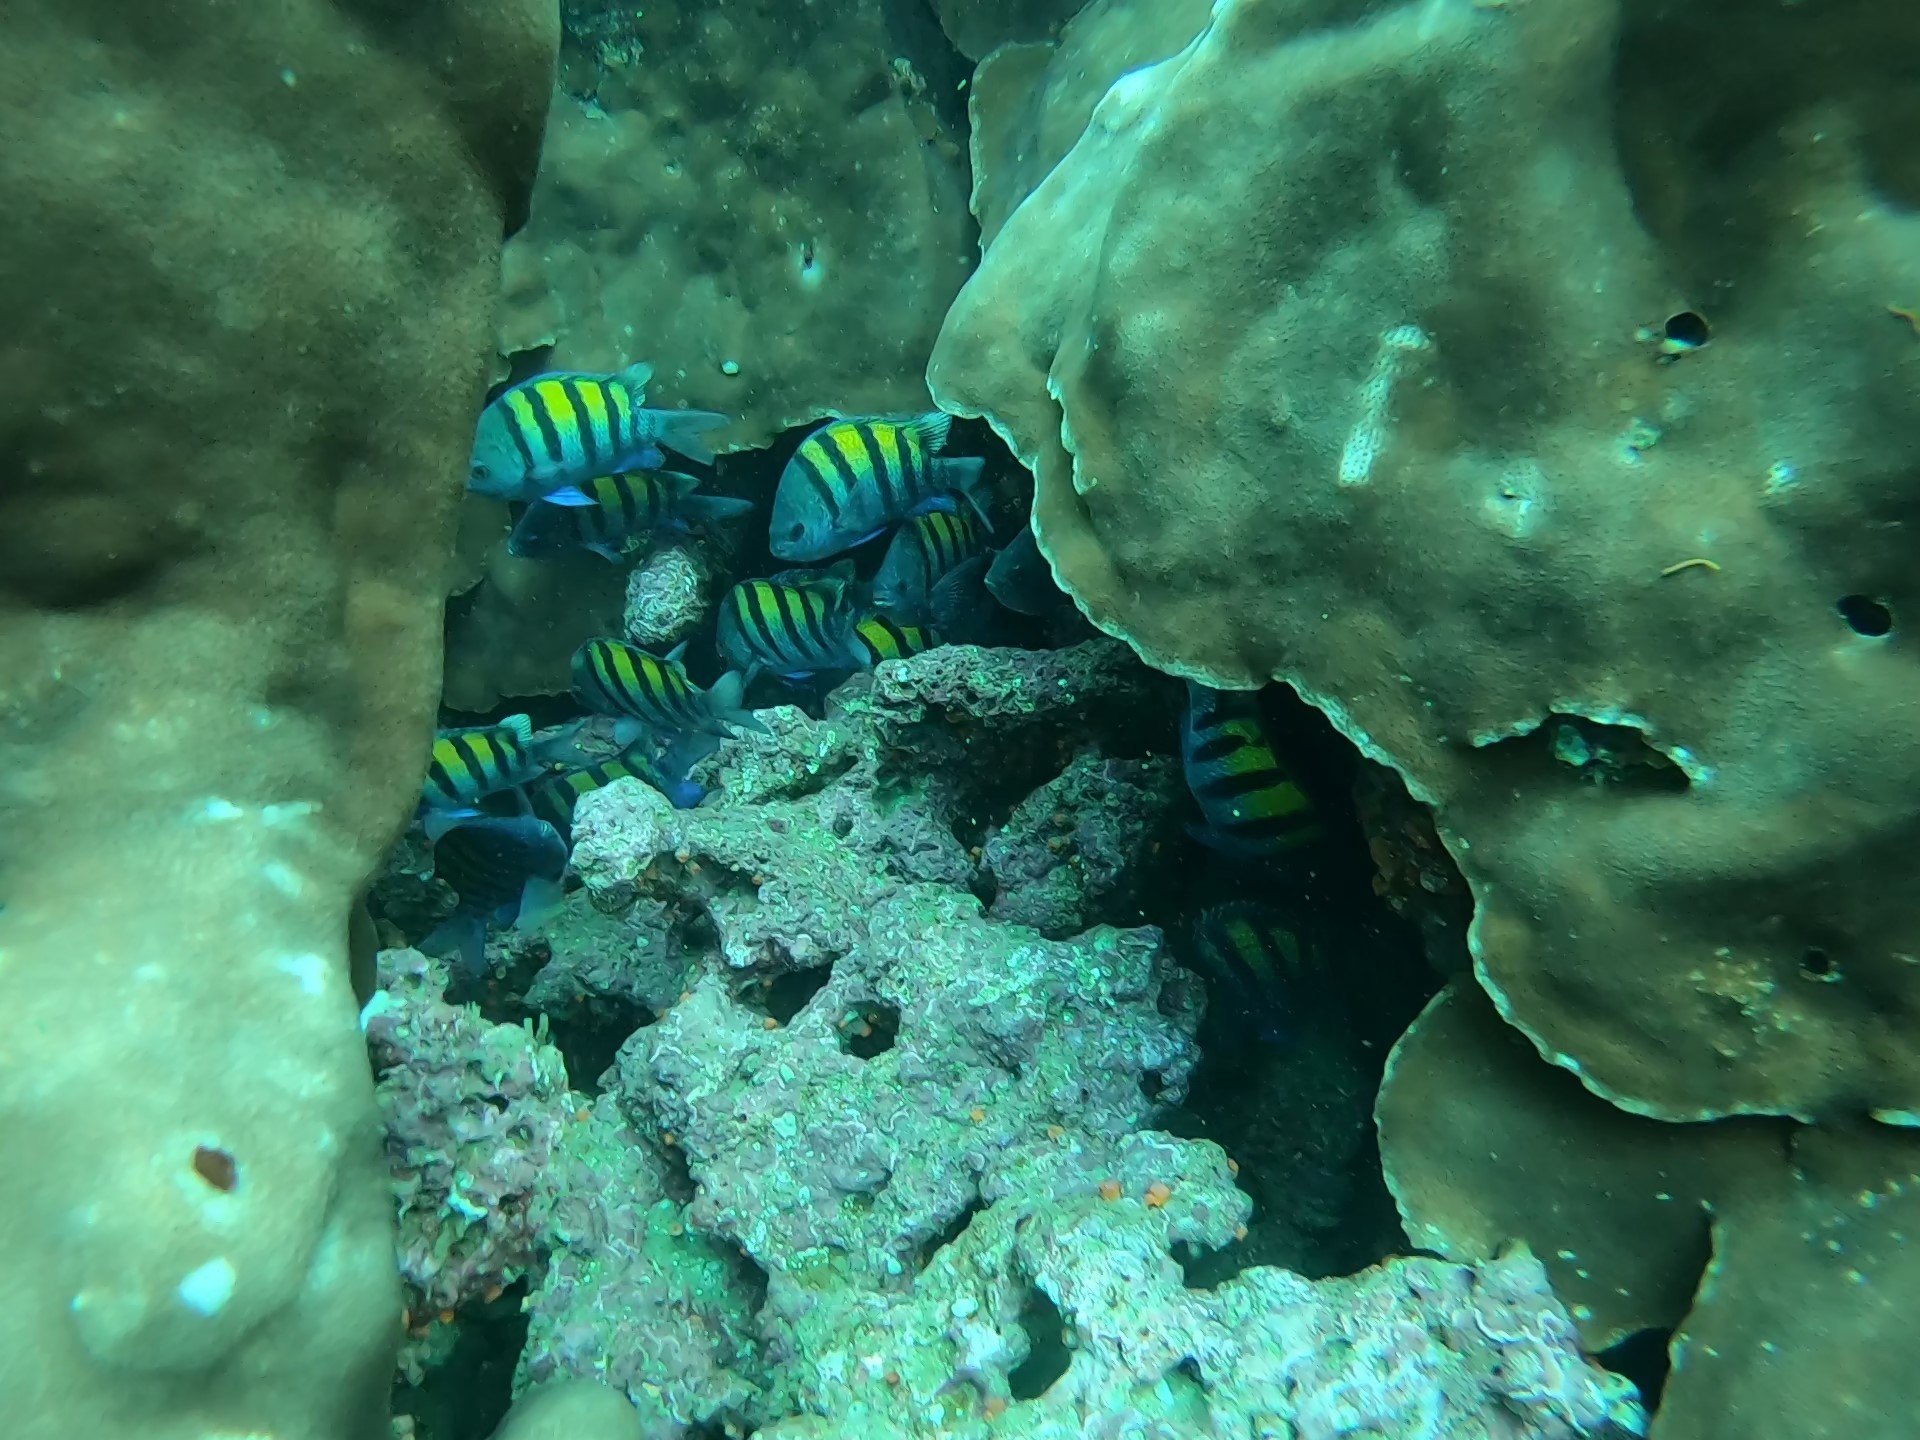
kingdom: Animalia
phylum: Chordata
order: Perciformes
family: Pomacentridae
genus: Abudefduf
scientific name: Abudefduf troschelii
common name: Panamic sergeant major
